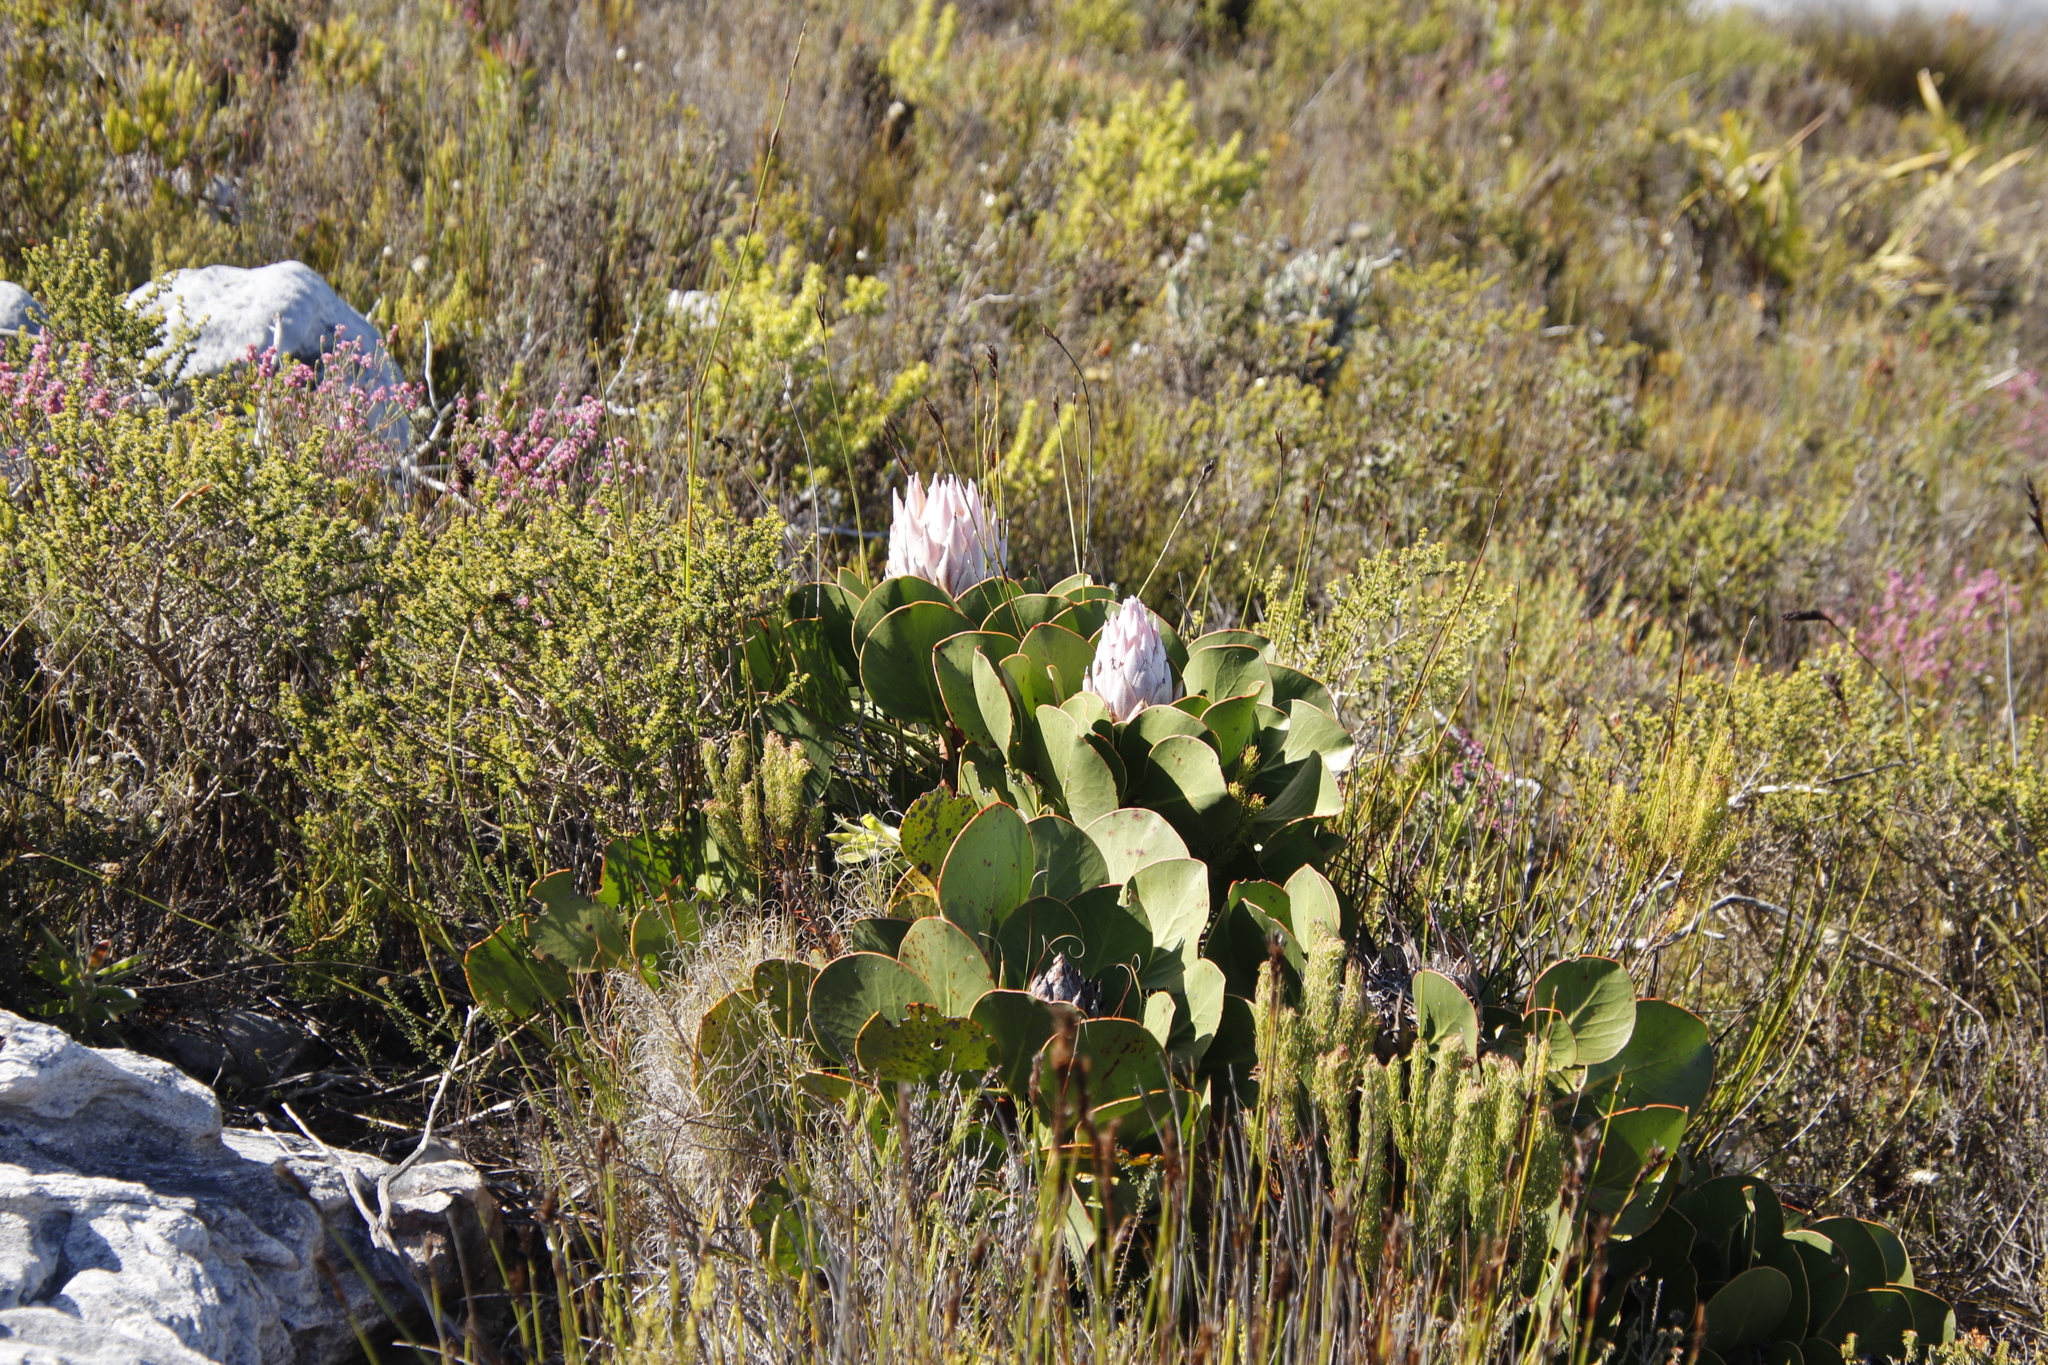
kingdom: Plantae
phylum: Tracheophyta
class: Magnoliopsida
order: Proteales
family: Proteaceae
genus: Protea
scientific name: Protea cynaroides
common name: King protea
